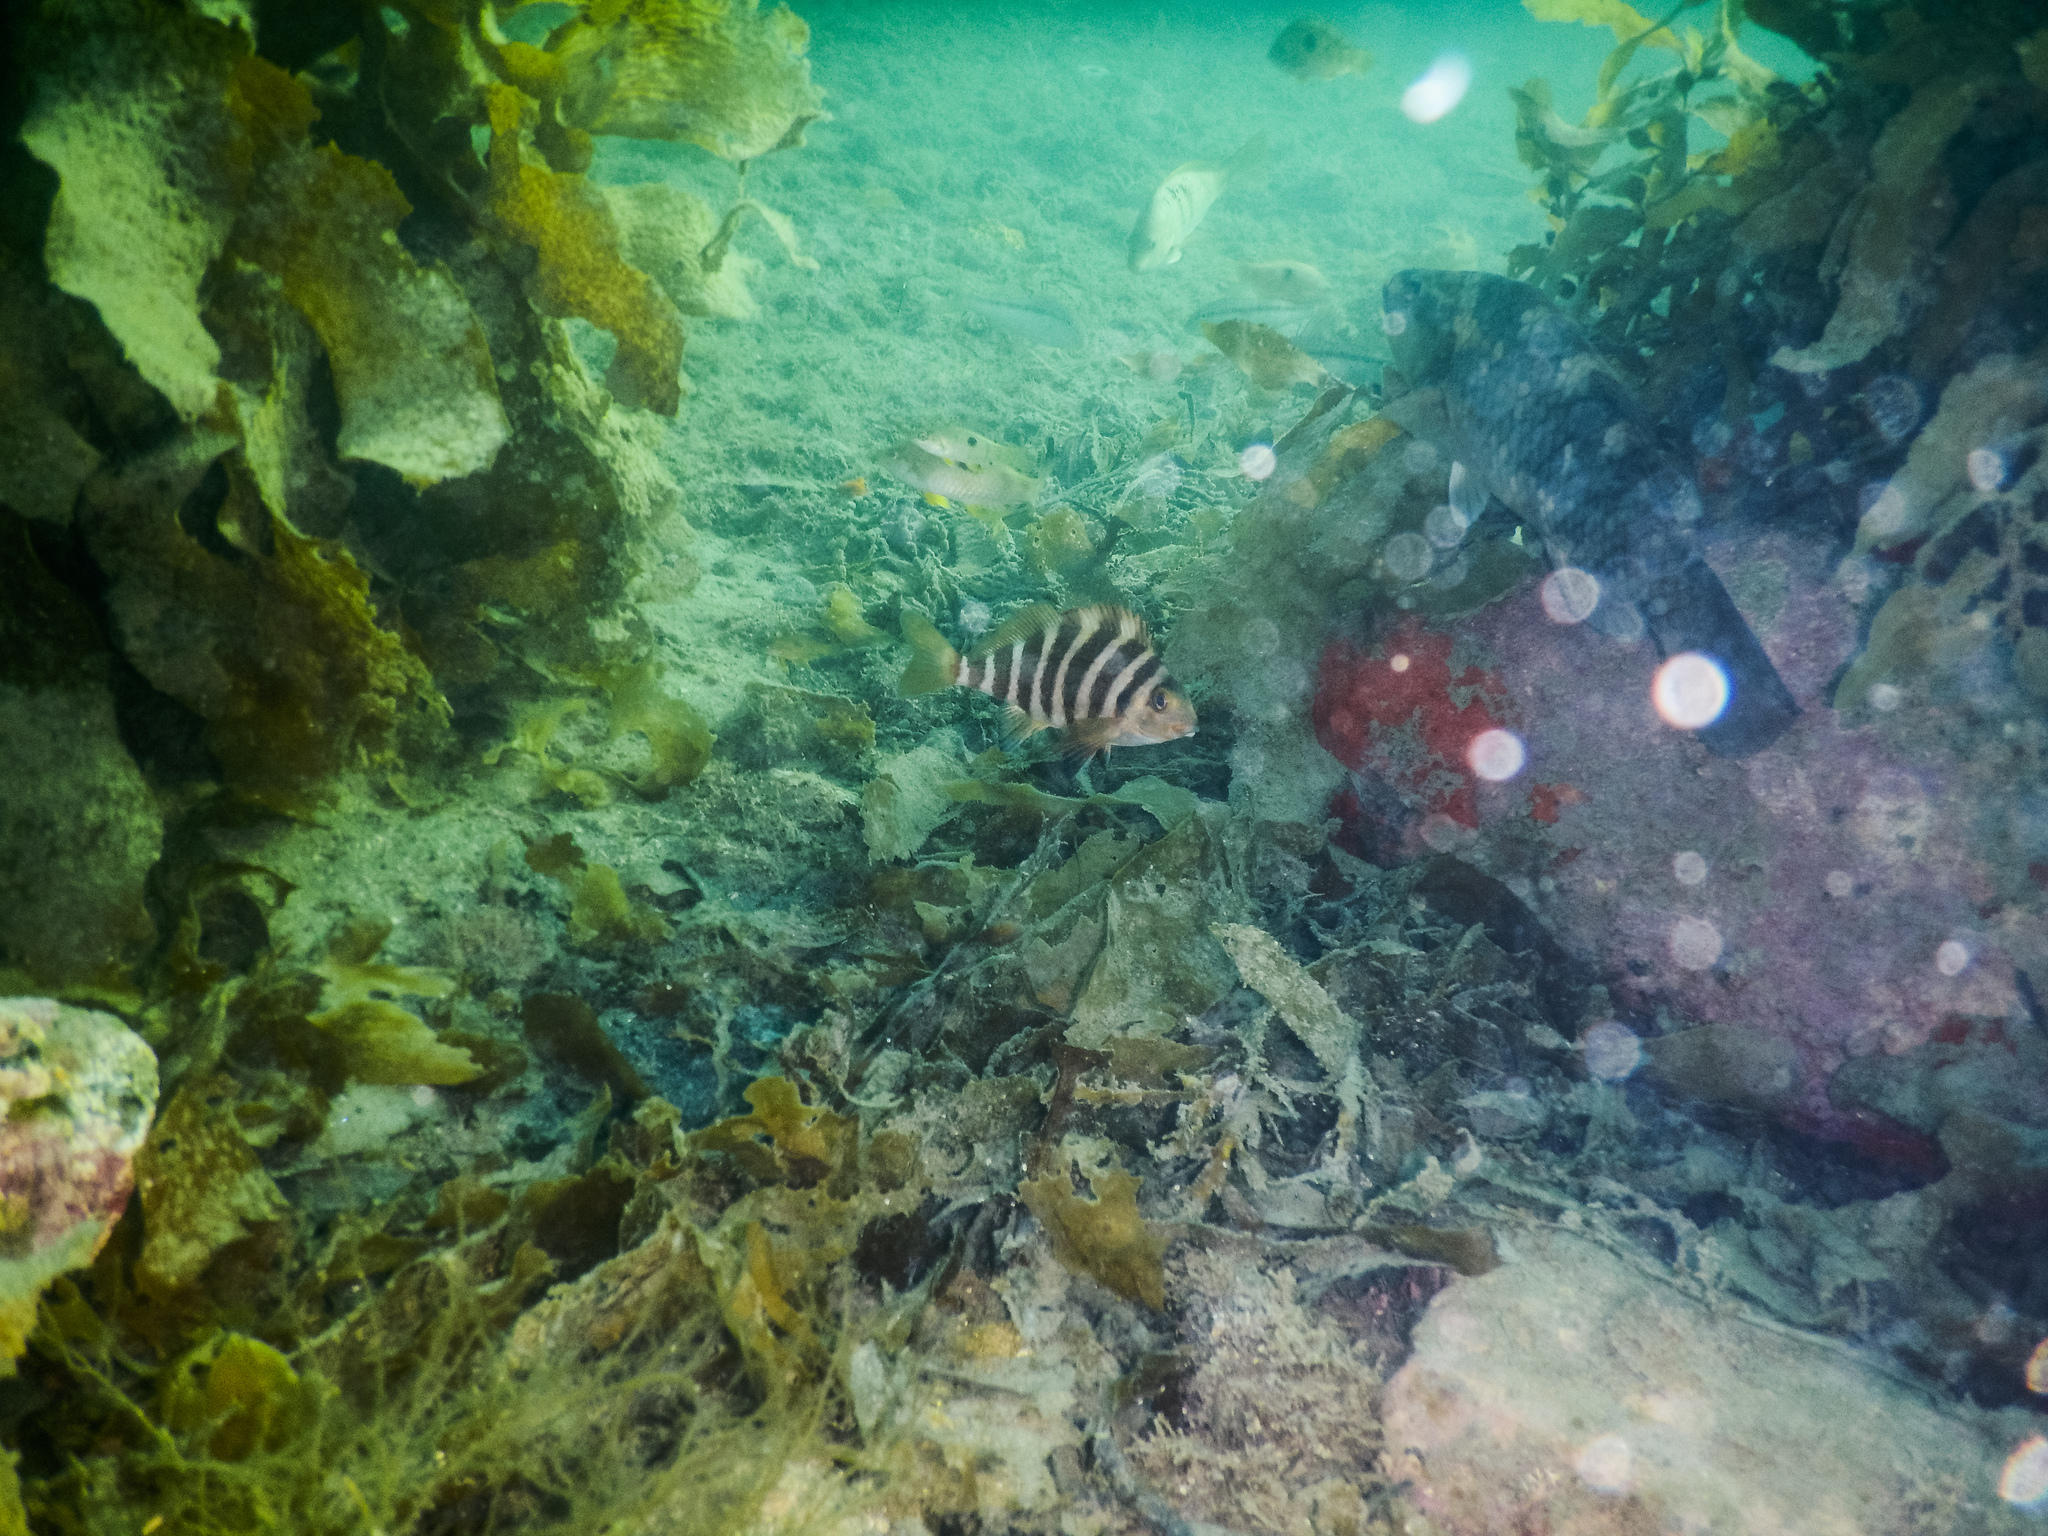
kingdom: Animalia
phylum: Chordata
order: Perciformes
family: Cheilodactylidae
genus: Cheilodactylus
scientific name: Cheilodactylus spectabilis
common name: Red moki
